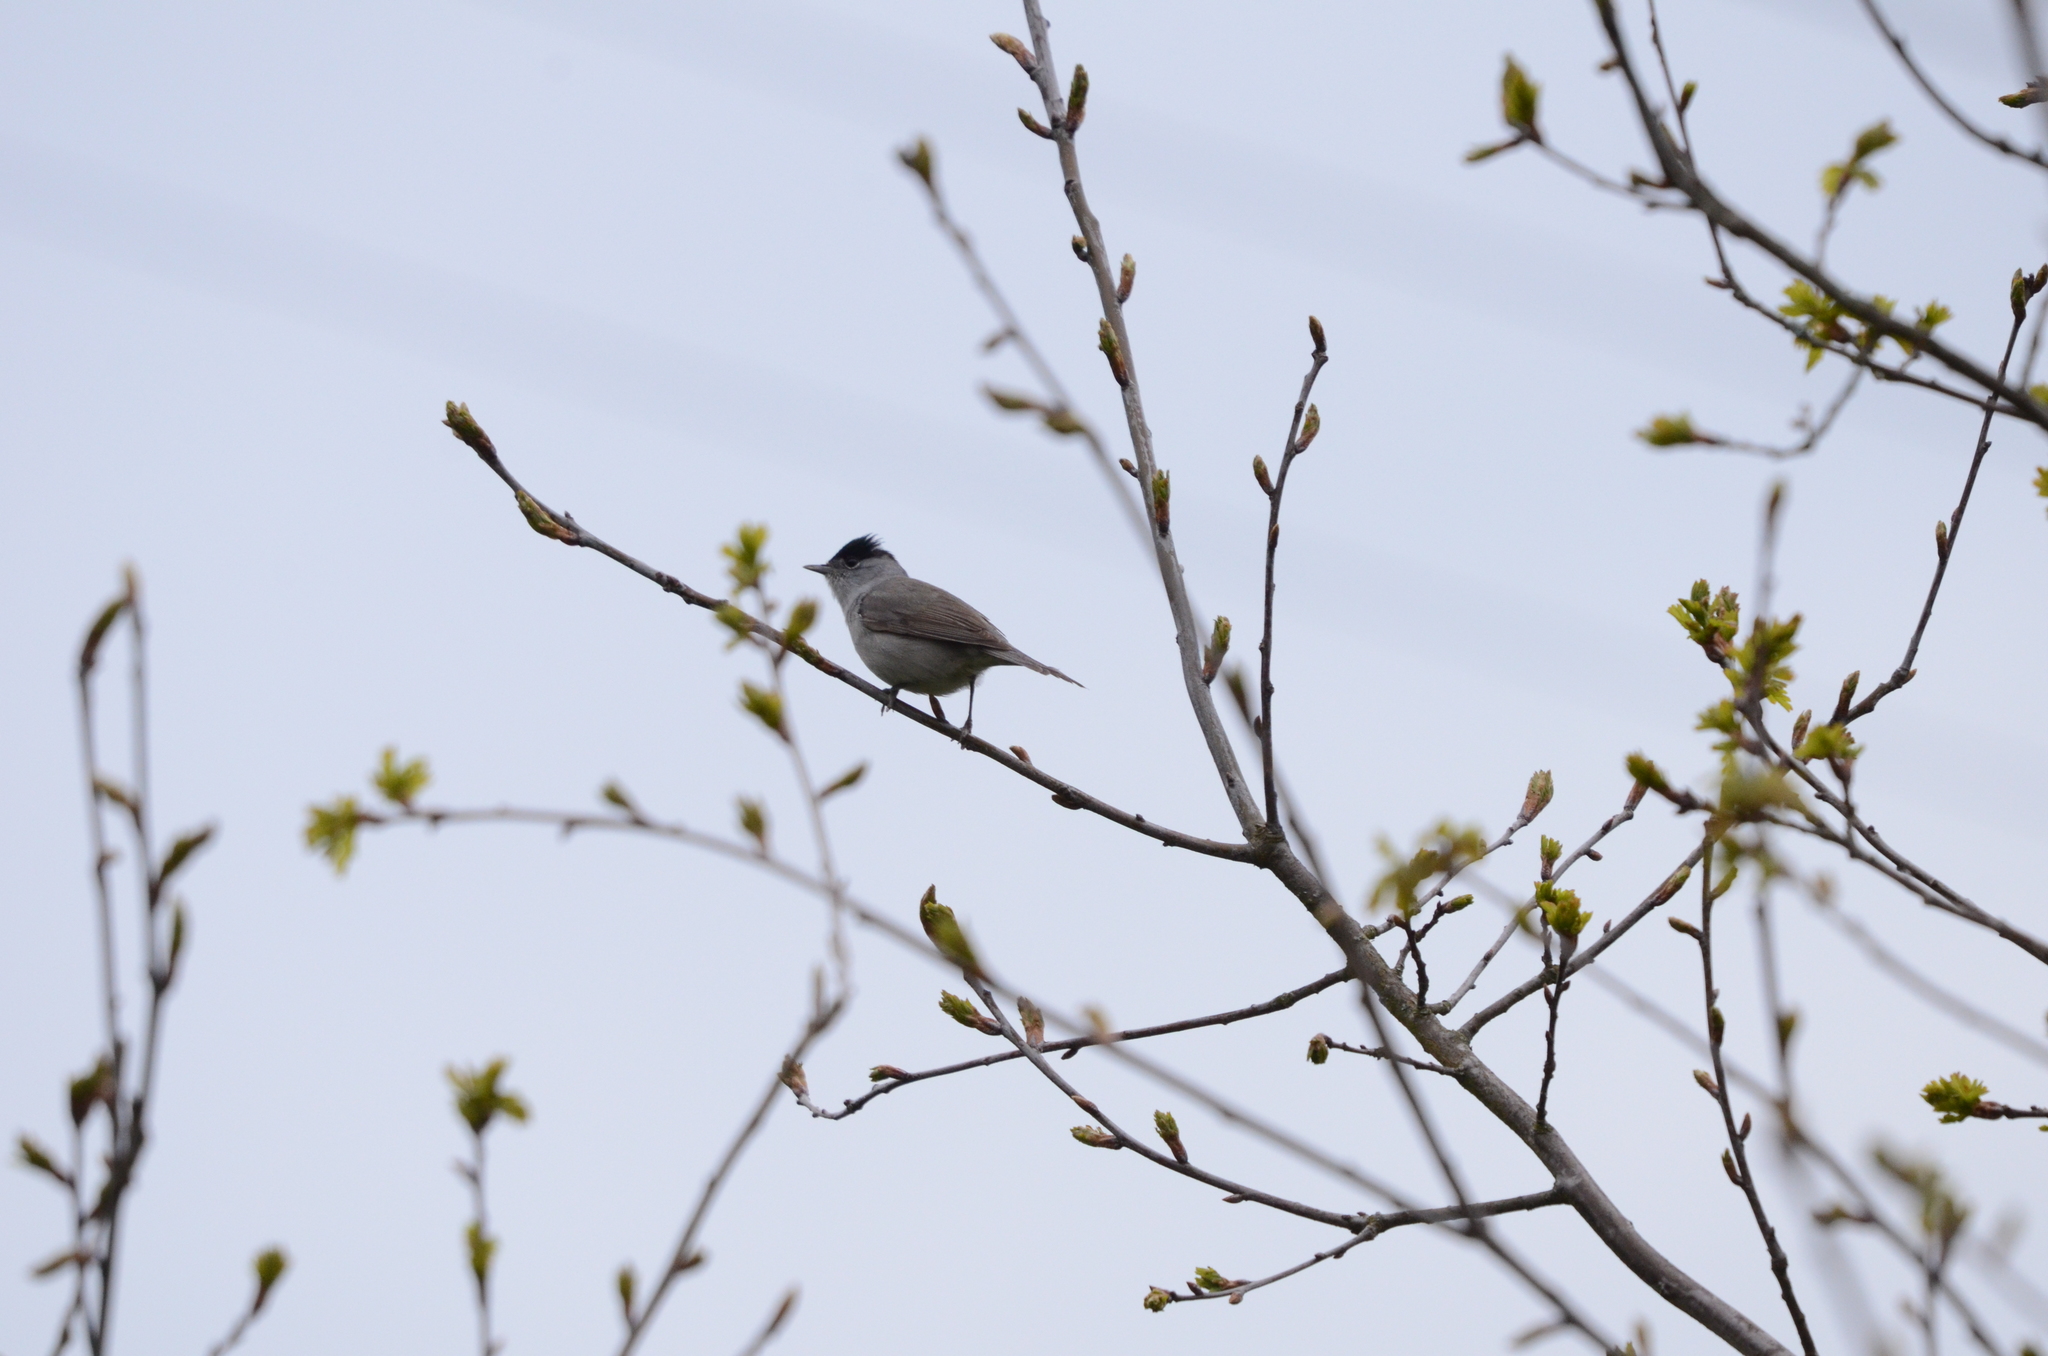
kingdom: Animalia
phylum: Chordata
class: Aves
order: Passeriformes
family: Sylviidae
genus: Sylvia
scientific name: Sylvia atricapilla
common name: Eurasian blackcap
